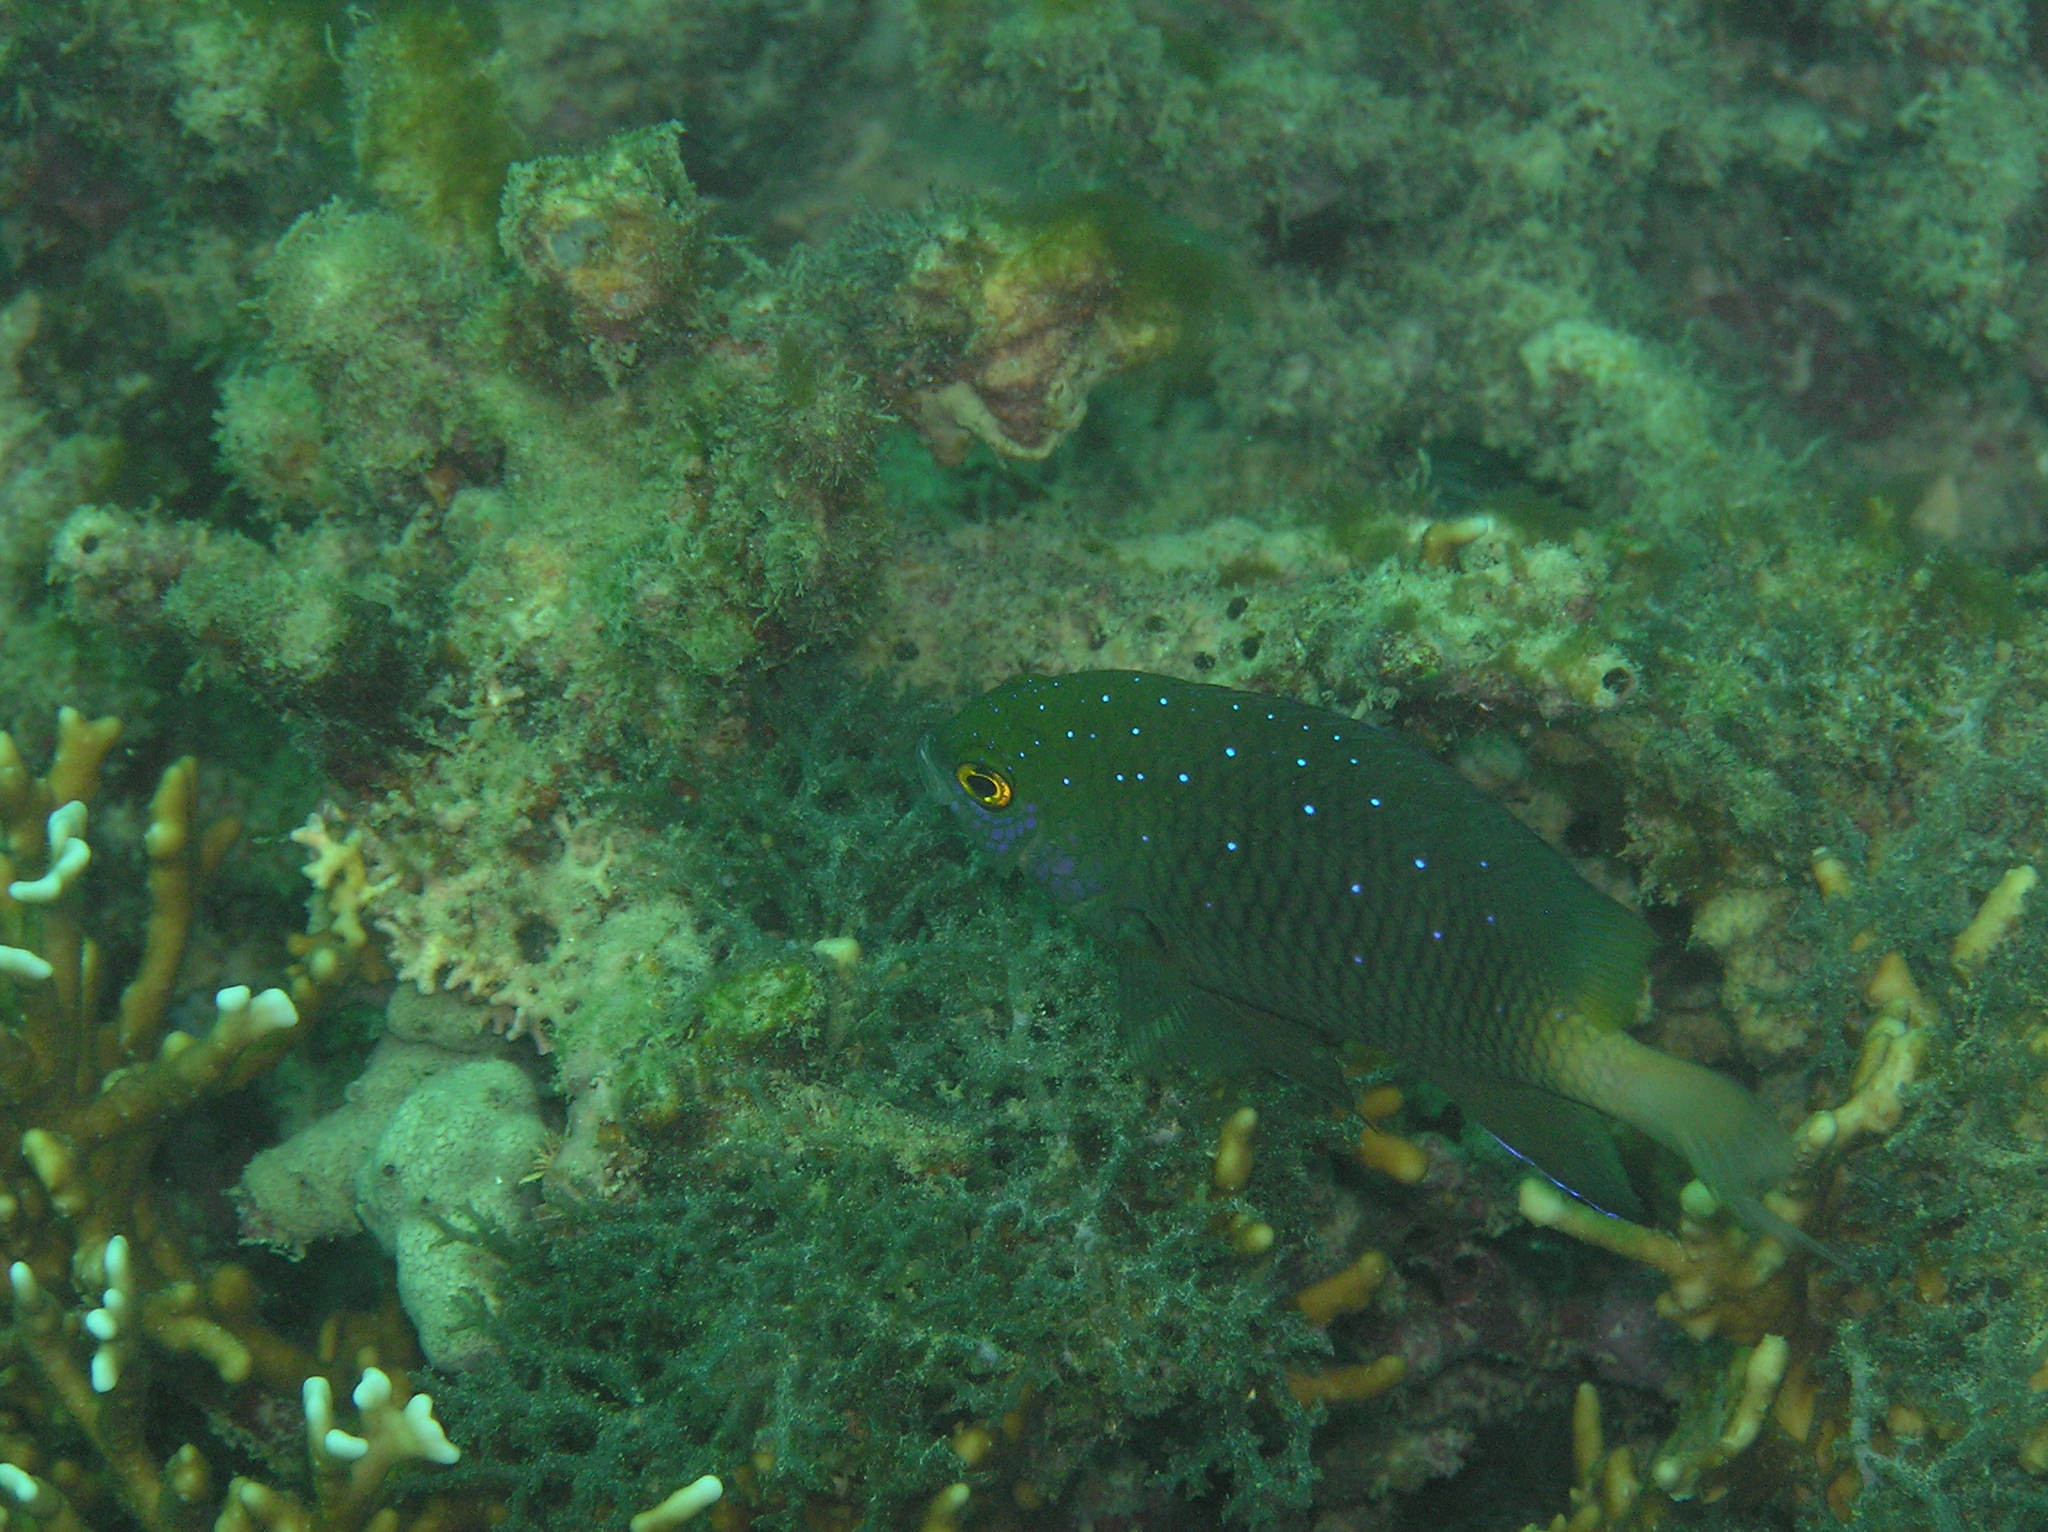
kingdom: Animalia
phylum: Chordata
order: Perciformes
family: Pomacentridae
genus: Plectroglyphidodon
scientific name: Plectroglyphidodon lacrymatus
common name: Jewel damsel
